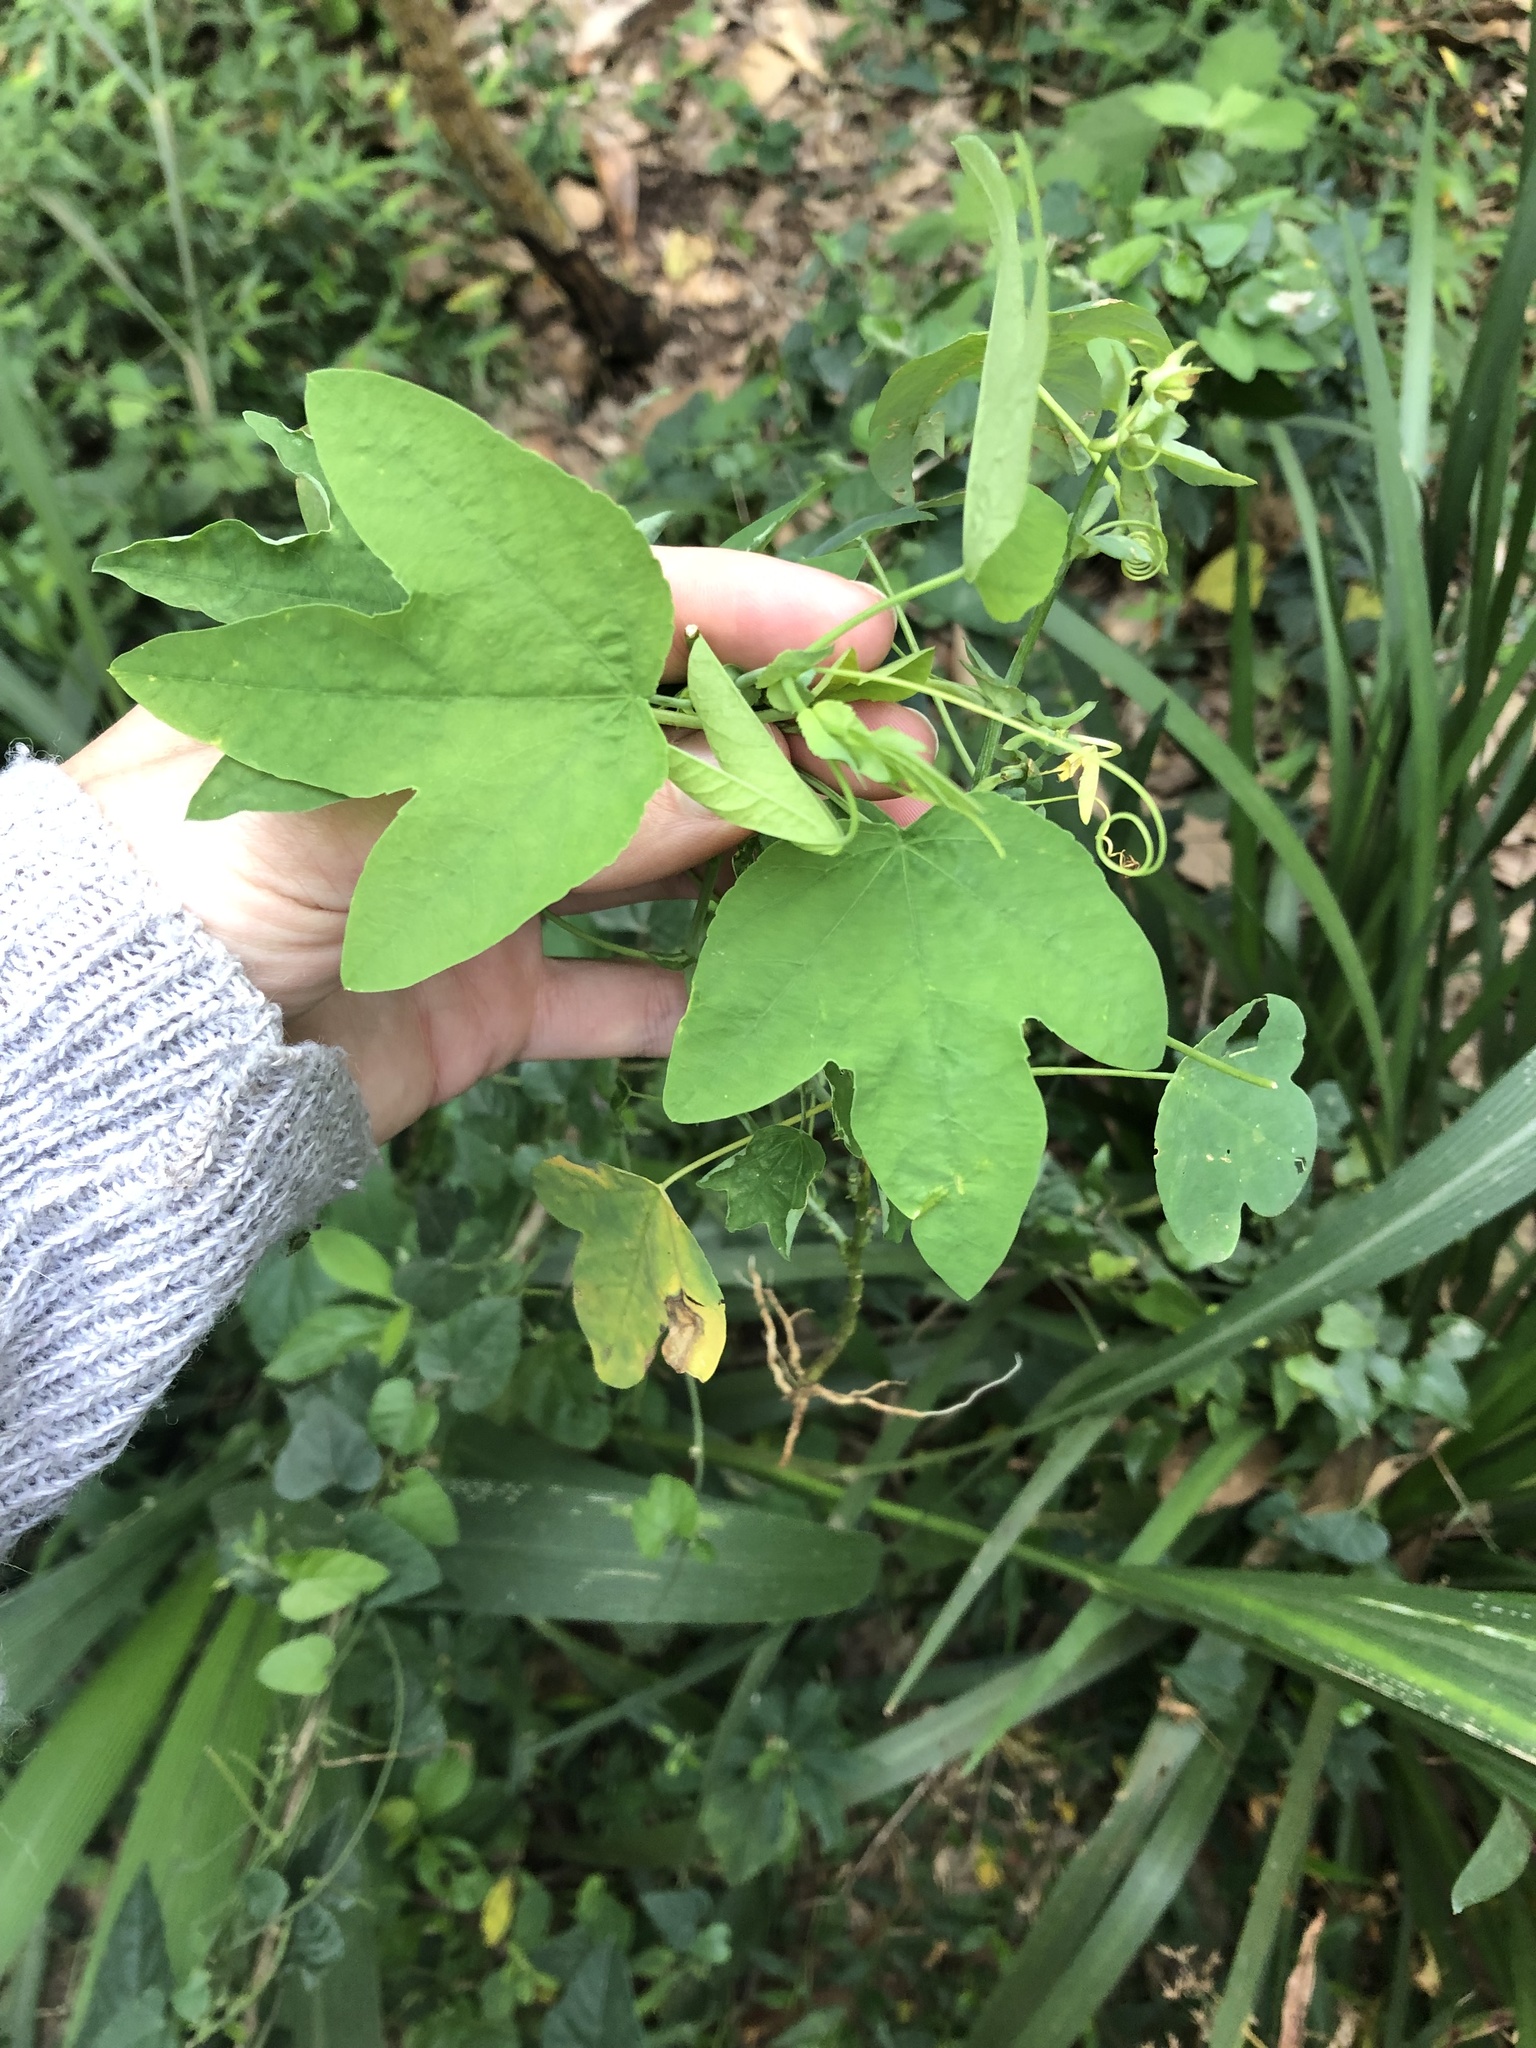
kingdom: Plantae
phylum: Tracheophyta
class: Magnoliopsida
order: Malpighiales
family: Passifloraceae
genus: Passiflora
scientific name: Passiflora subpeltata
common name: White passionflower
